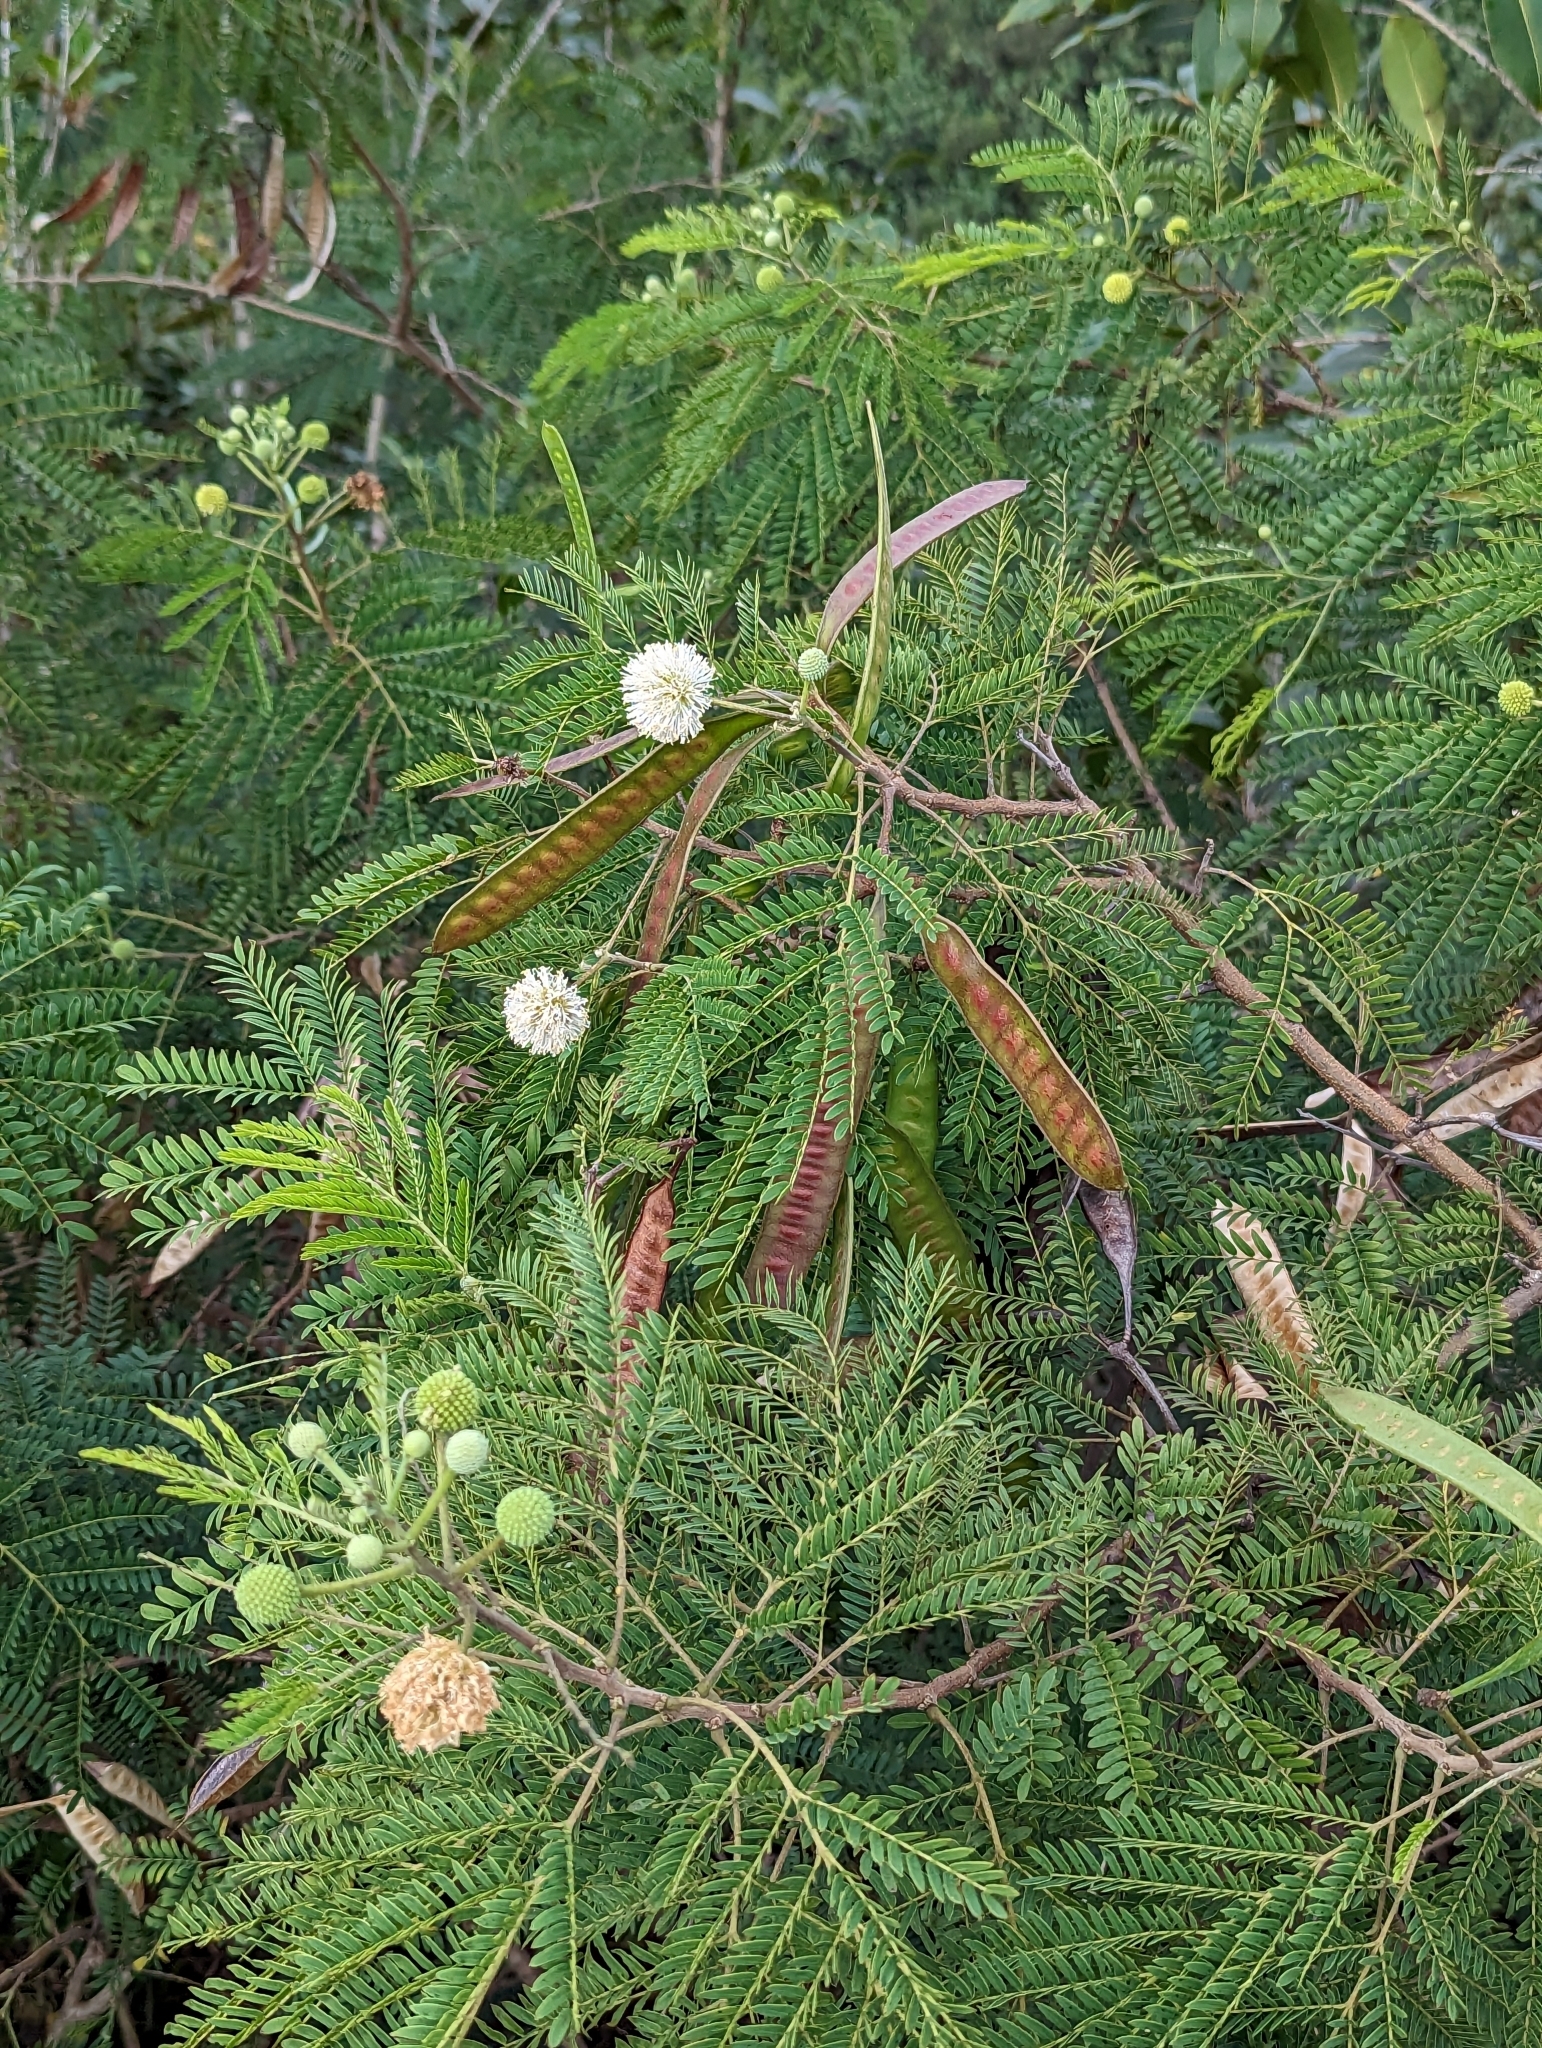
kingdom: Plantae
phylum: Tracheophyta
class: Magnoliopsida
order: Fabales
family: Fabaceae
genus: Leucaena
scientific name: Leucaena leucocephala
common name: White leadtree
